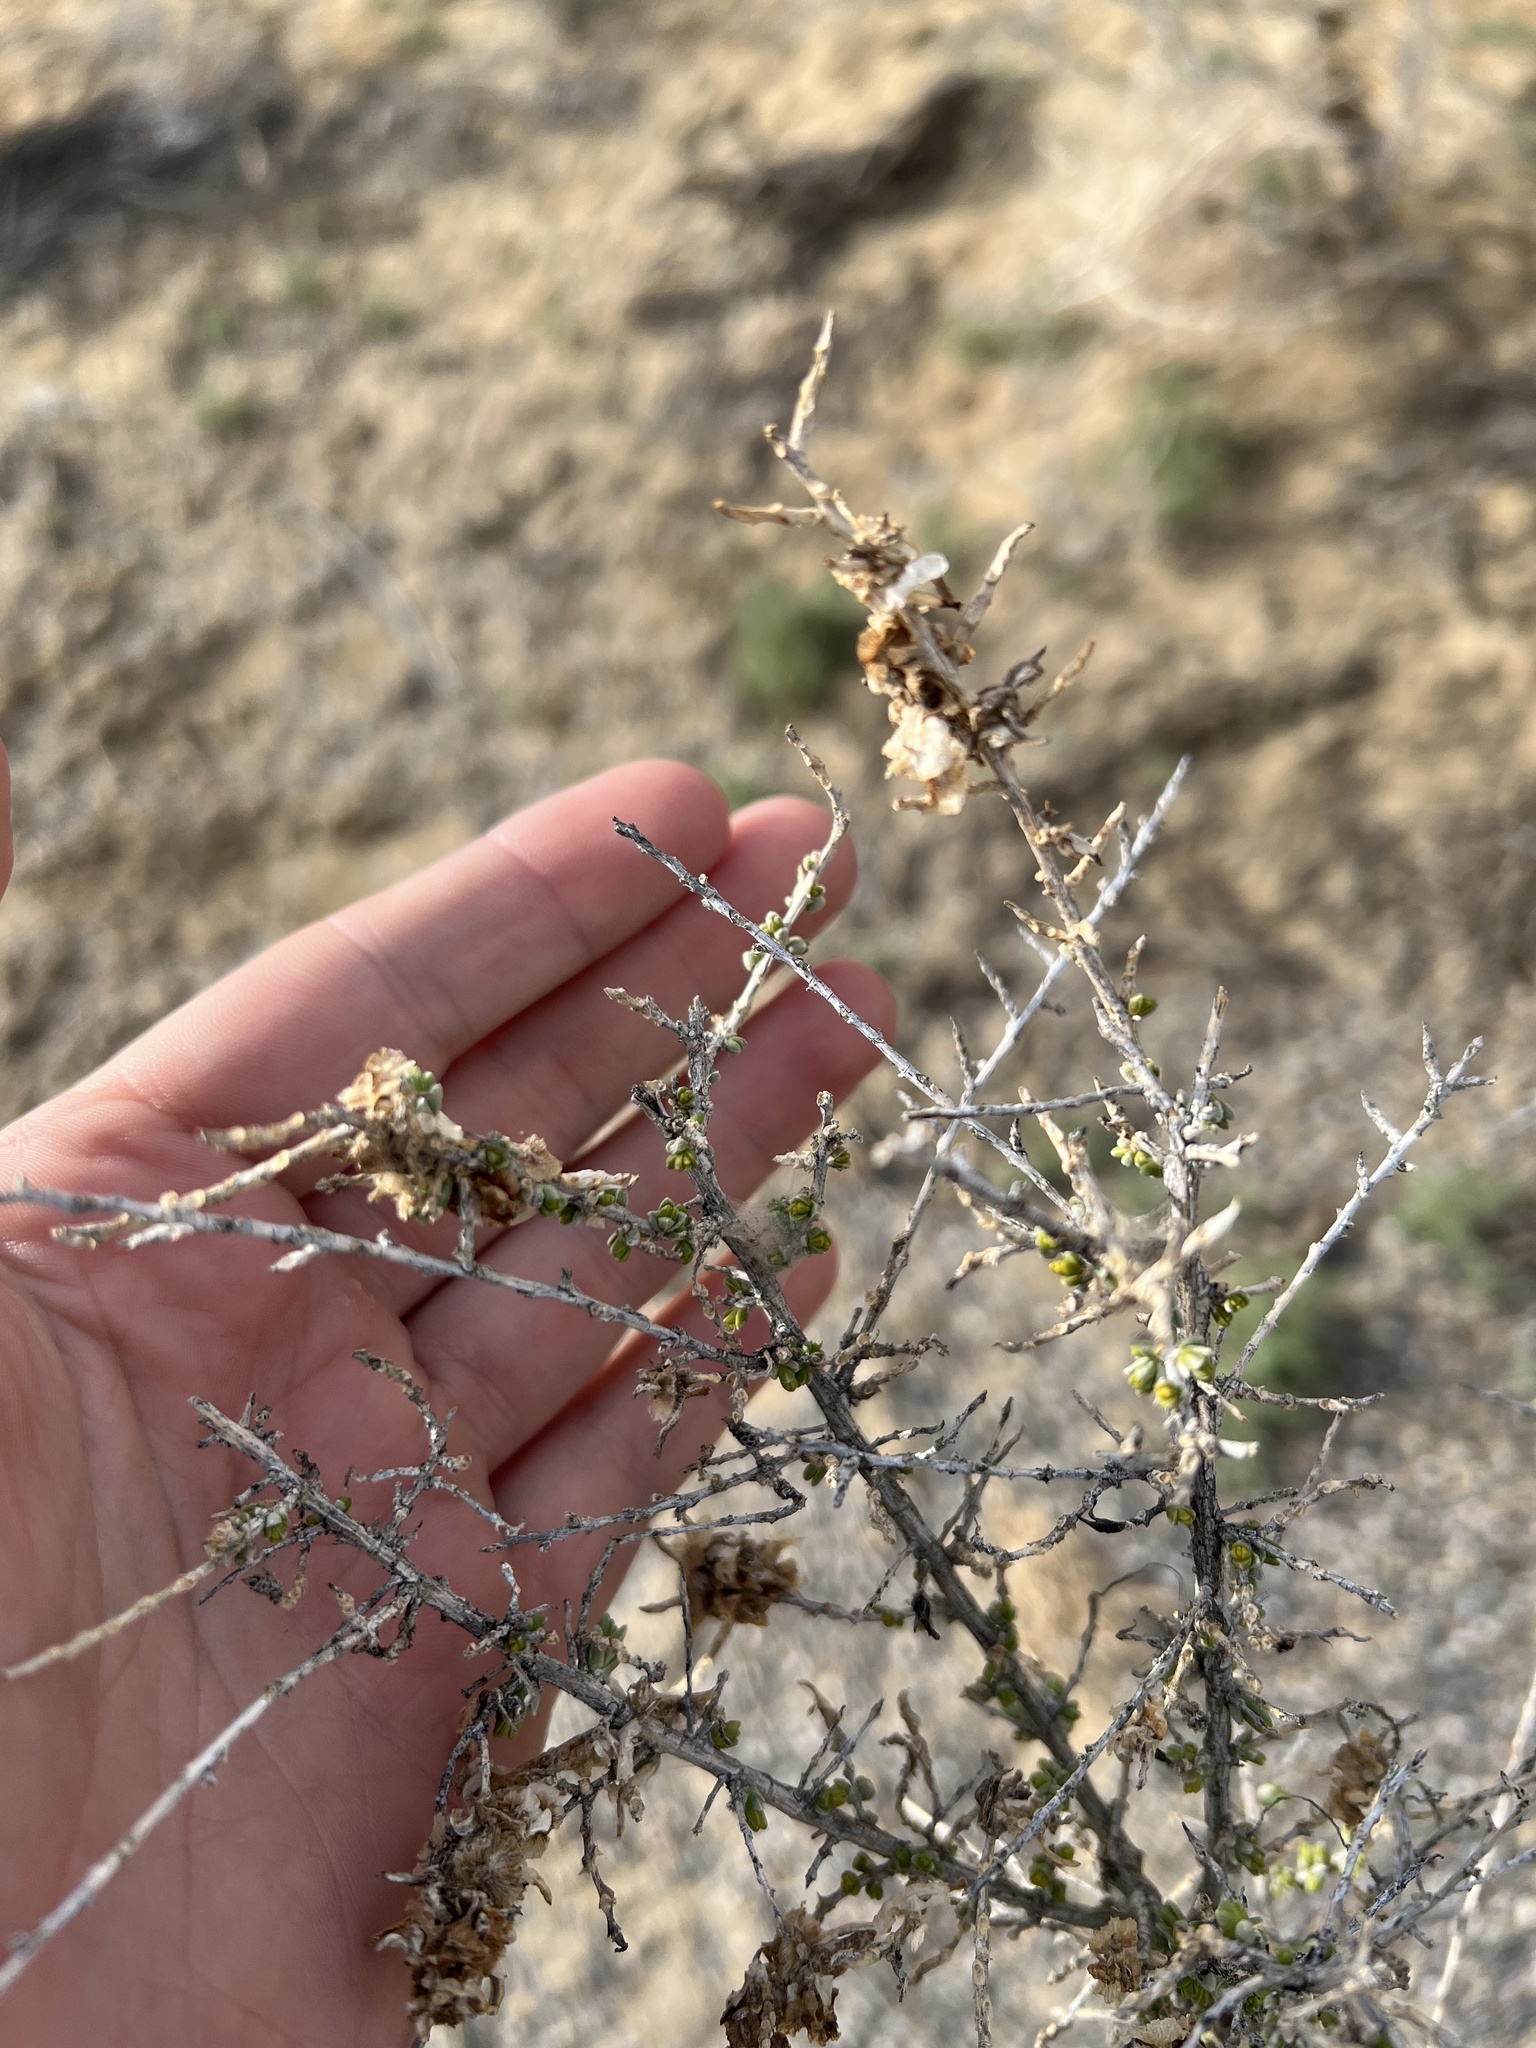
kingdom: Plantae
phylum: Tracheophyta
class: Magnoliopsida
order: Caryophyllales
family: Sarcobataceae
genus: Sarcobatus
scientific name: Sarcobatus vermiculatus
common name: Greasewood
